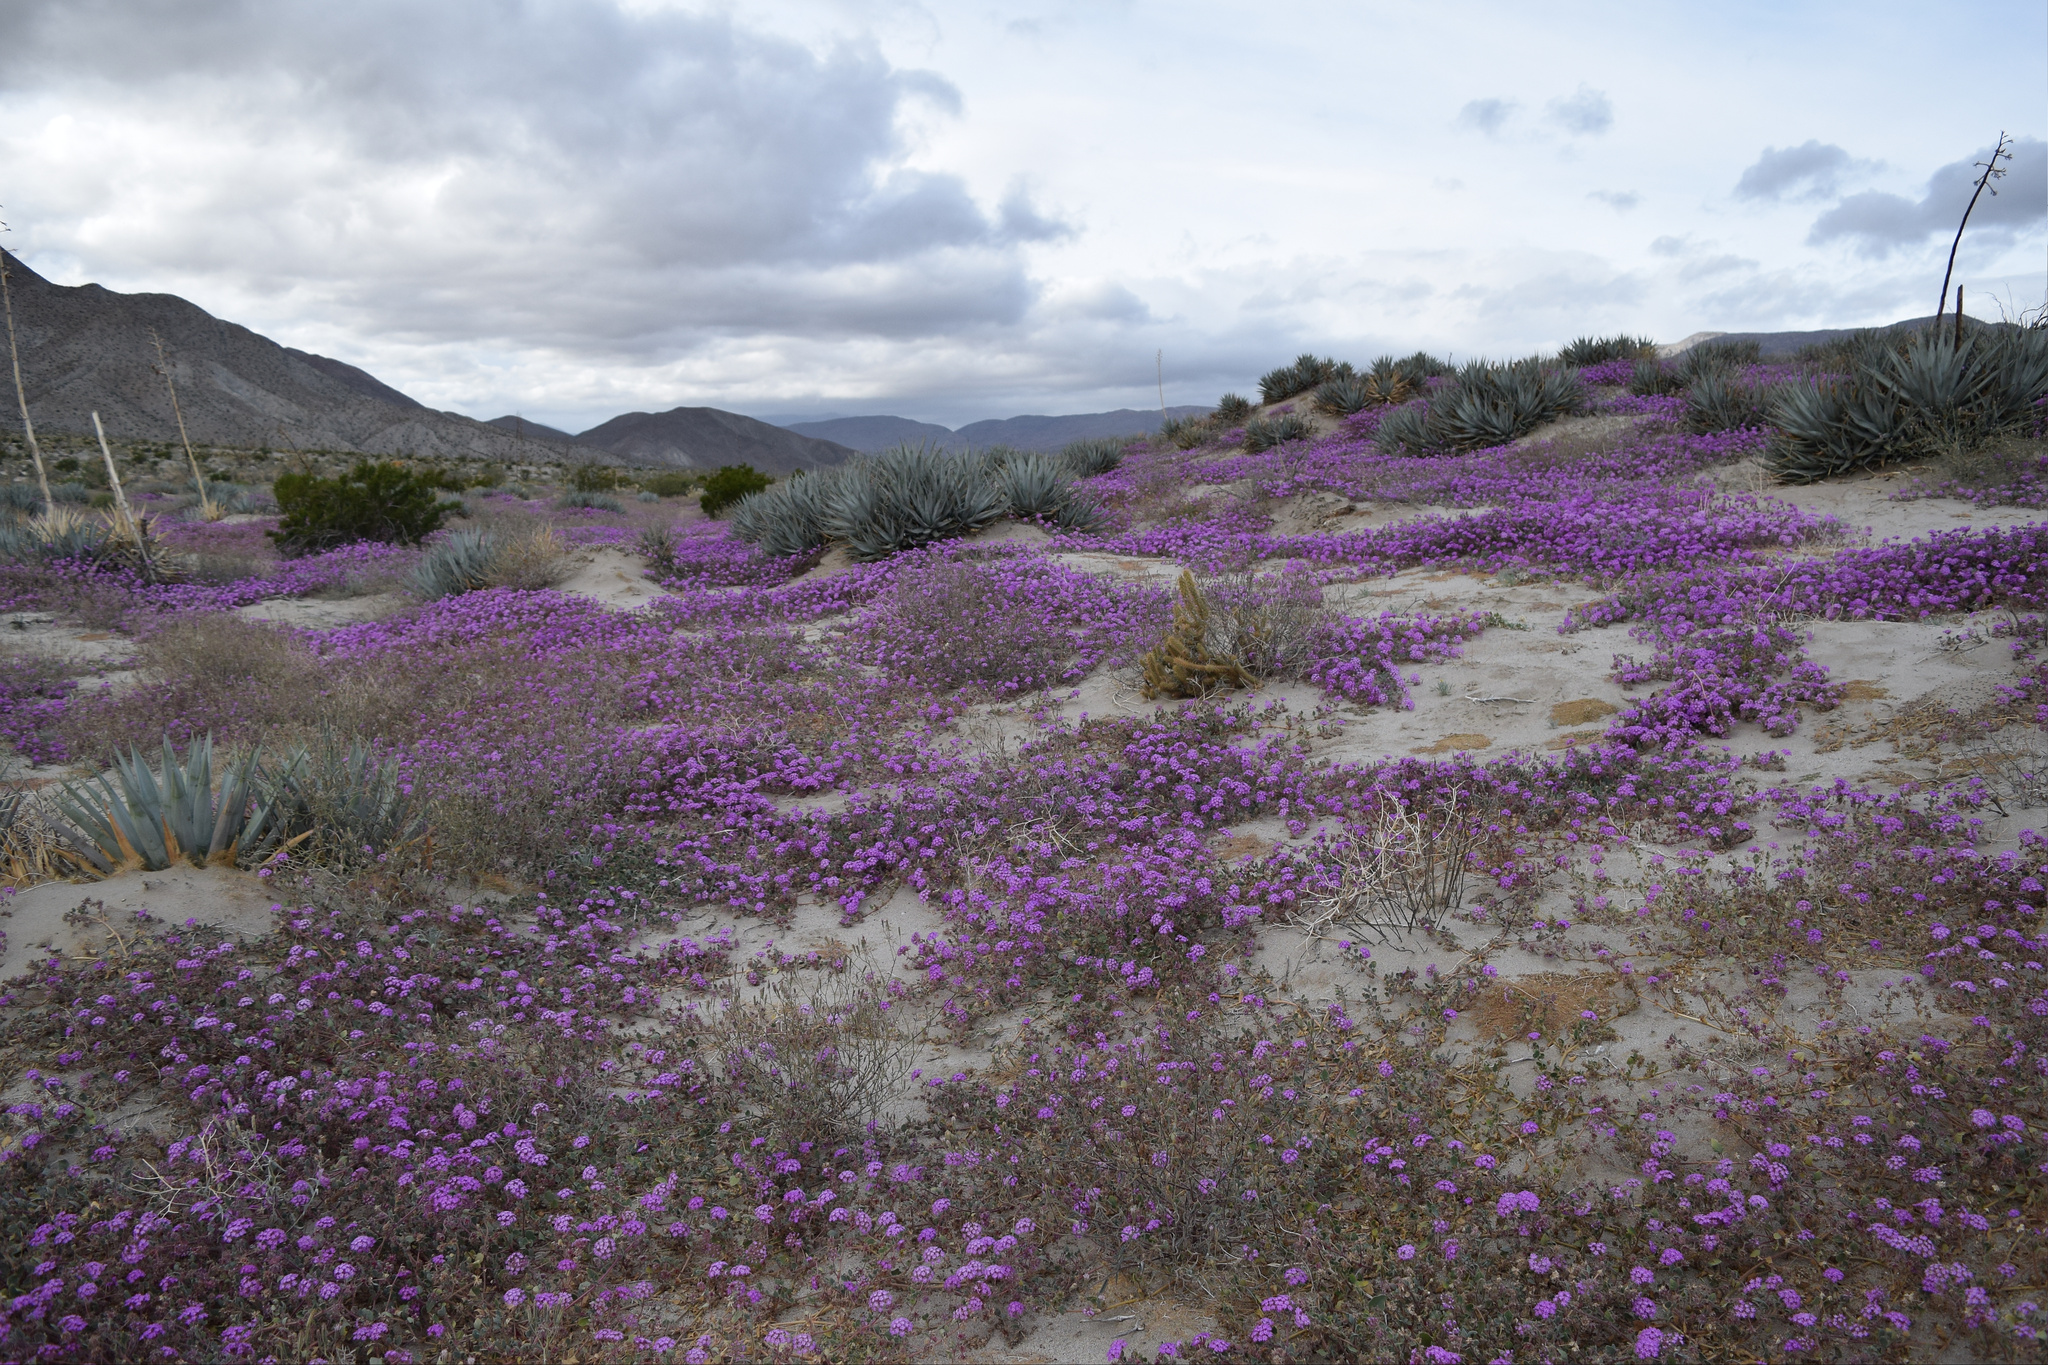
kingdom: Plantae
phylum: Tracheophyta
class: Magnoliopsida
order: Caryophyllales
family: Nyctaginaceae
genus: Abronia
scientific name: Abronia villosa
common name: Desert sand-verbena
